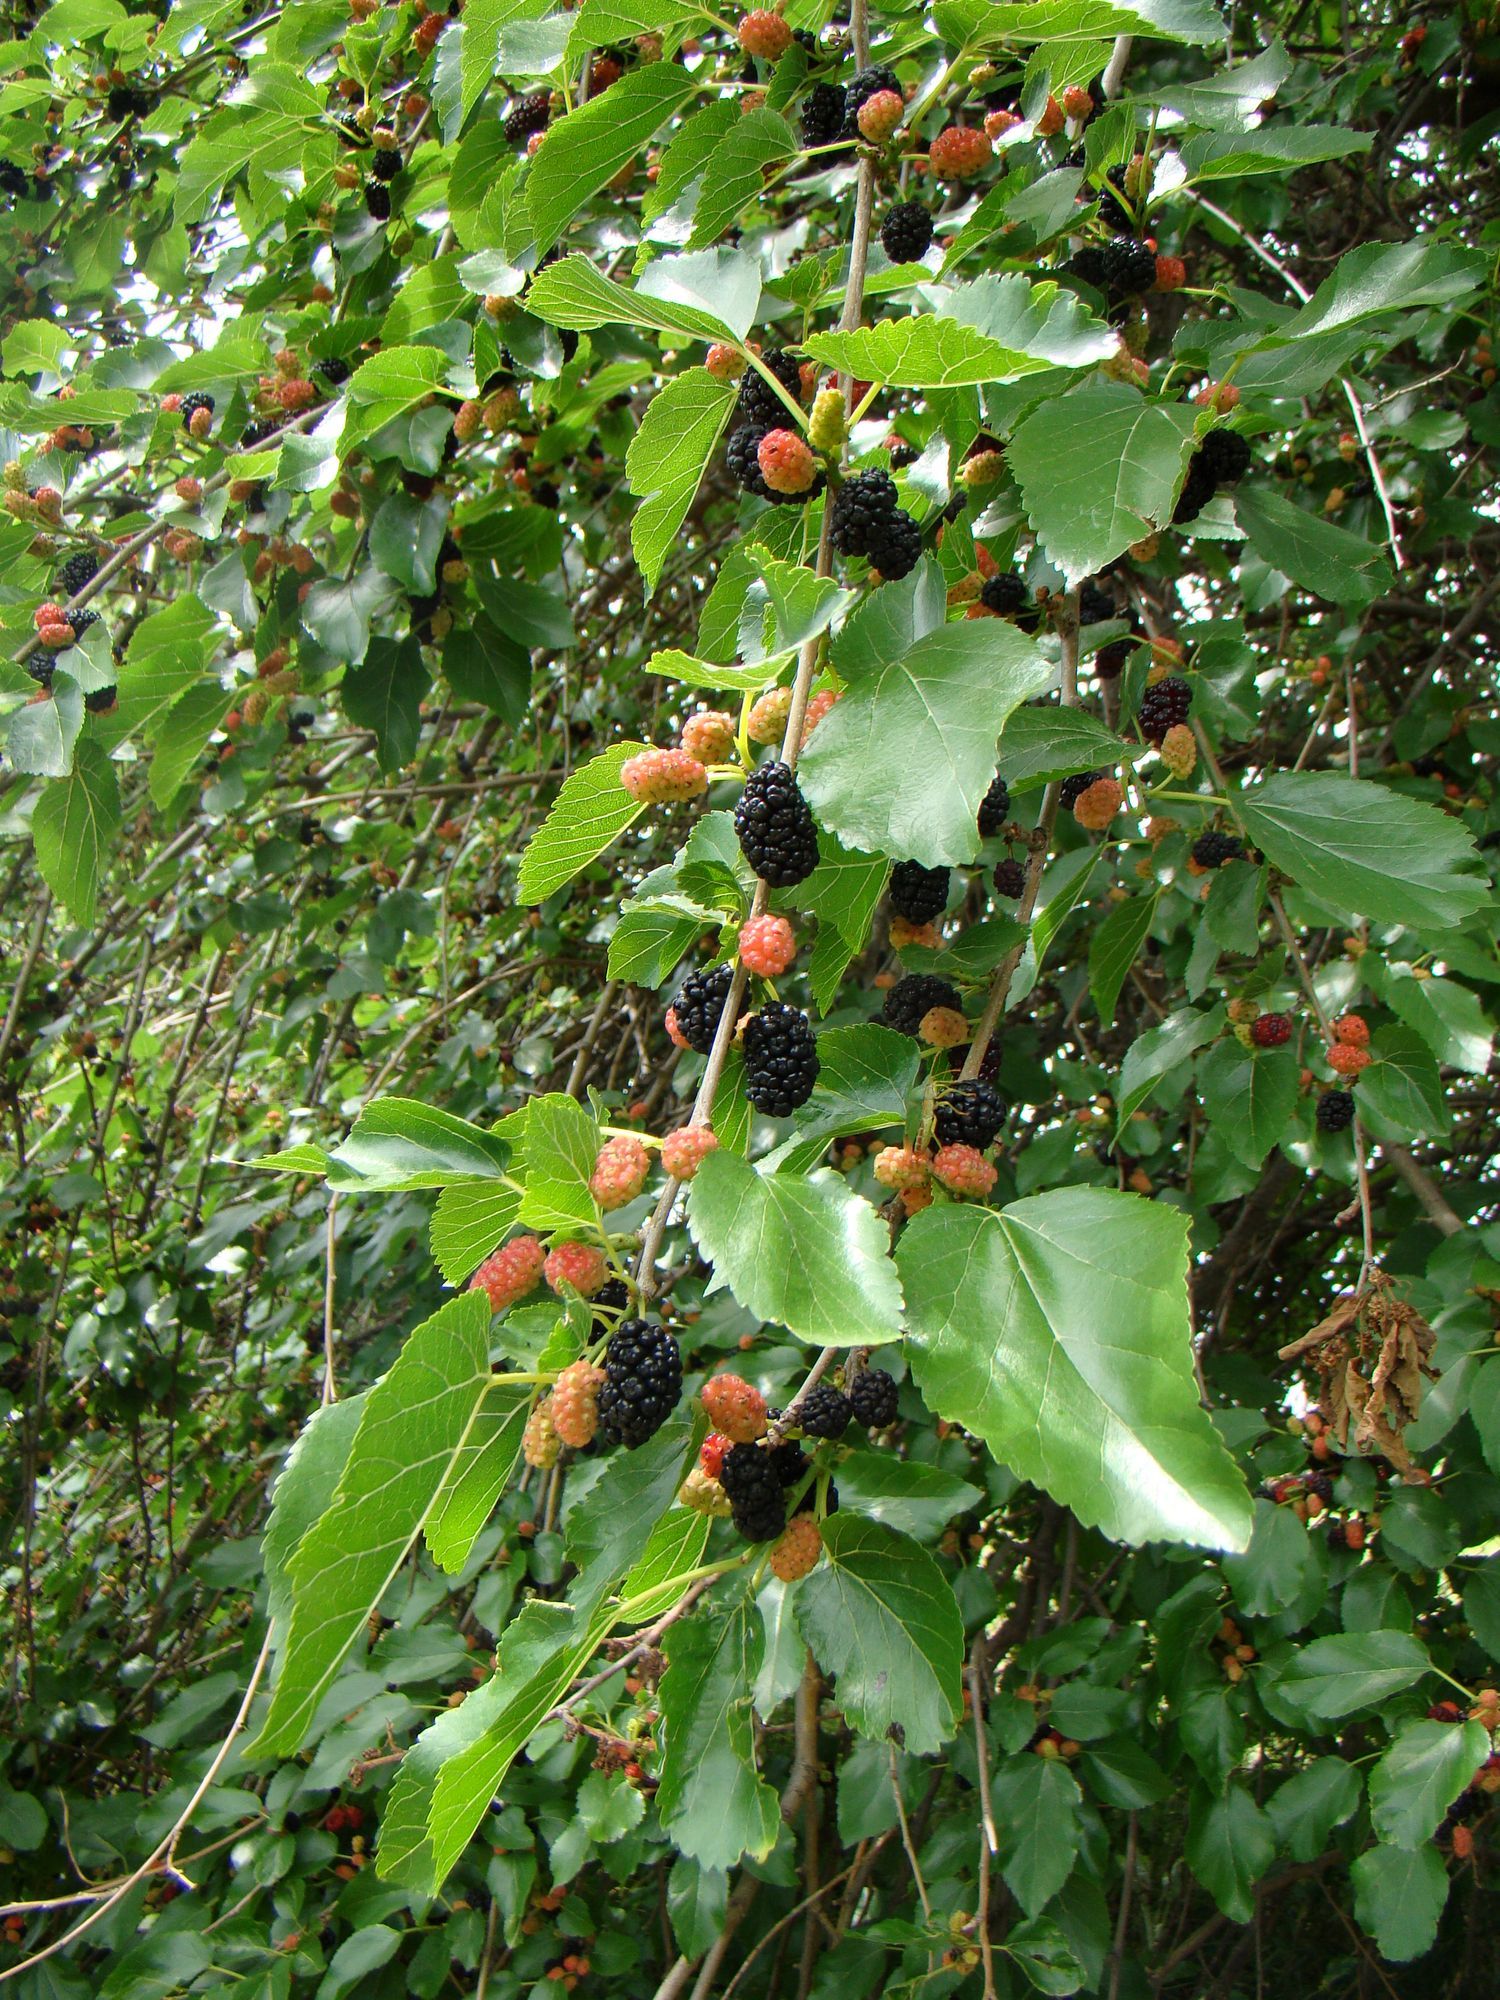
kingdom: Plantae
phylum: Tracheophyta
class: Magnoliopsida
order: Rosales
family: Moraceae
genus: Morus
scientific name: Morus alba
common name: White mulberry
